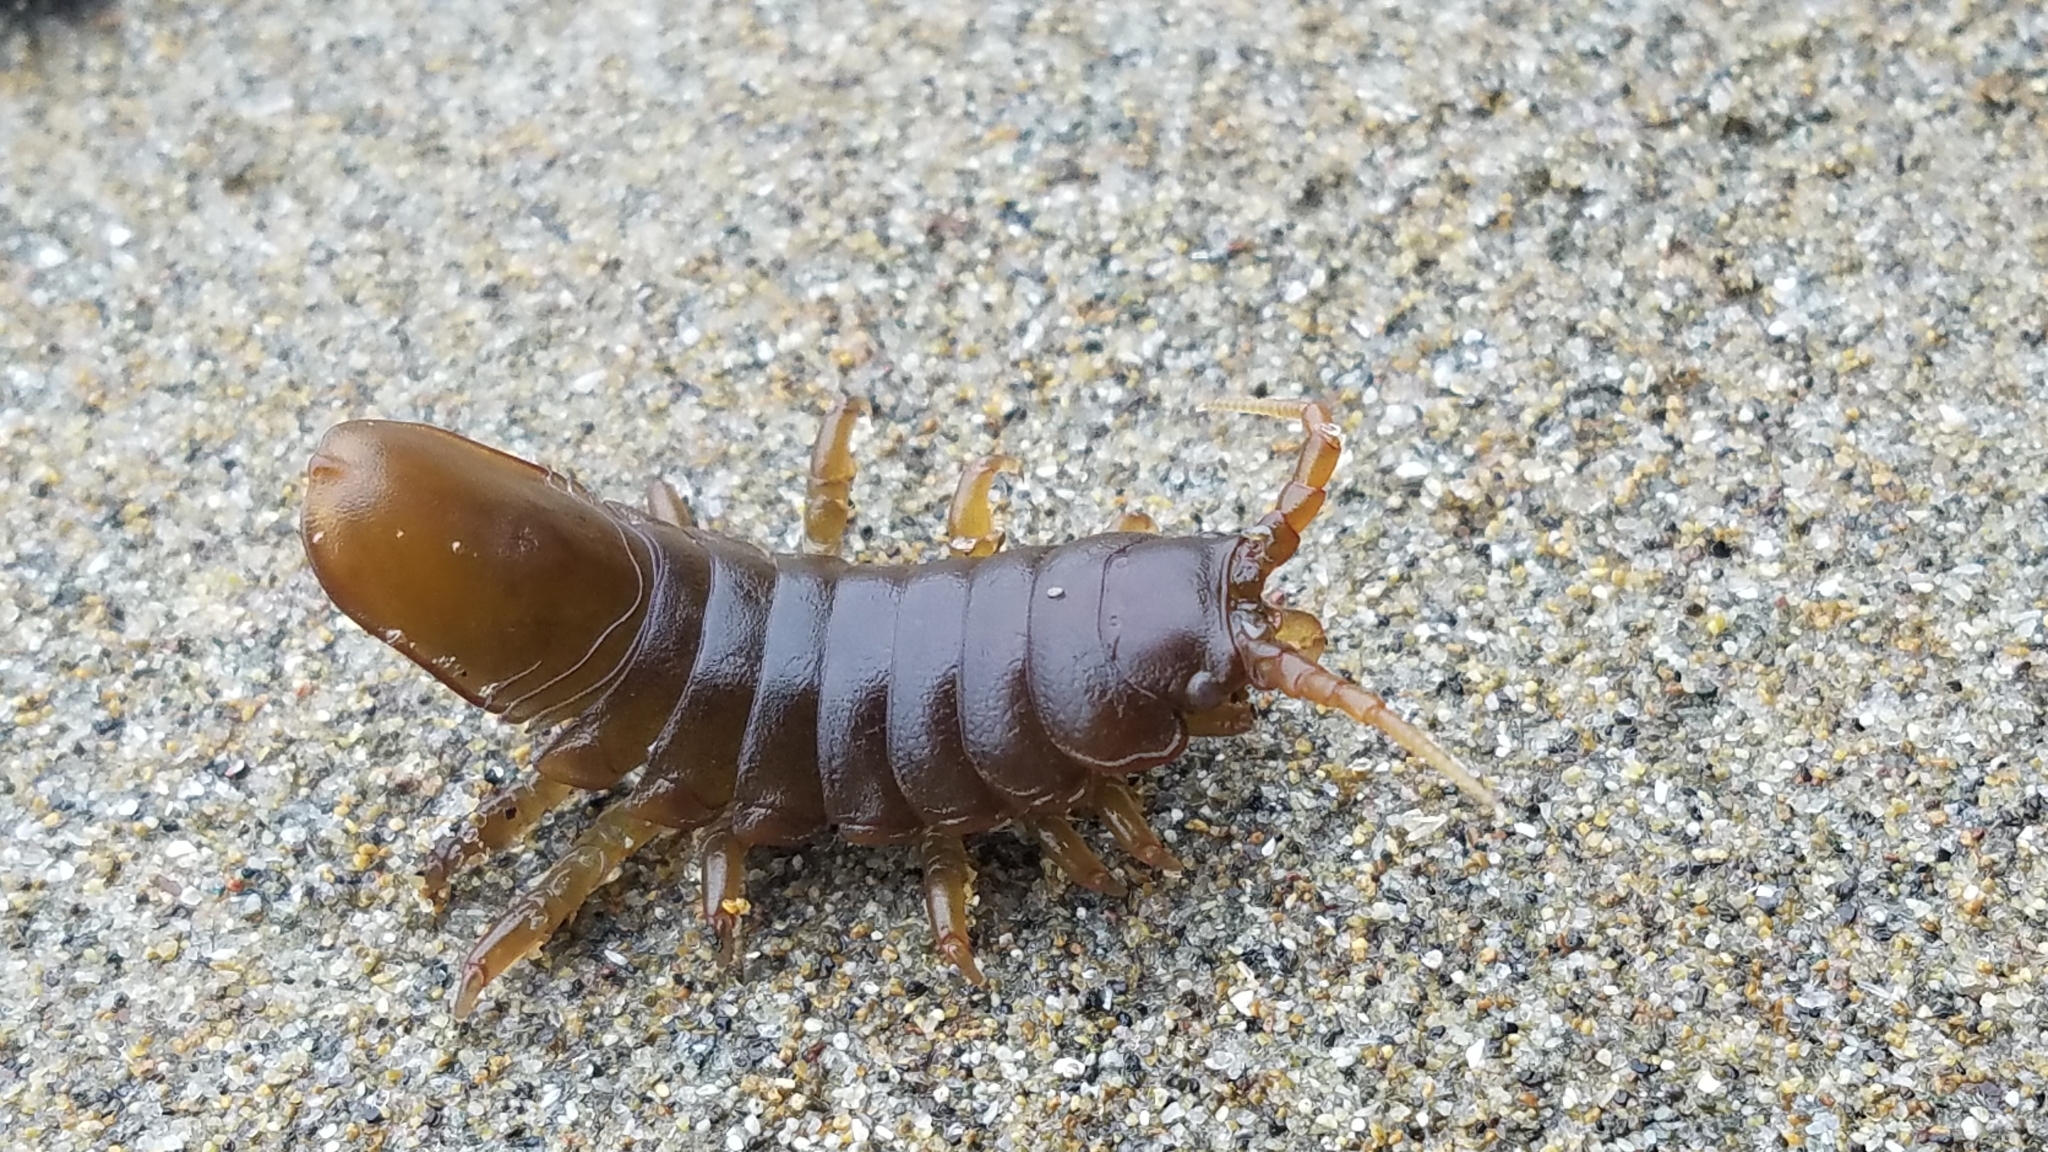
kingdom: Animalia
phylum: Arthropoda
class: Malacostraca
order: Isopoda
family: Idoteidae
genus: Pentidotea
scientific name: Pentidotea wosnesenskii
